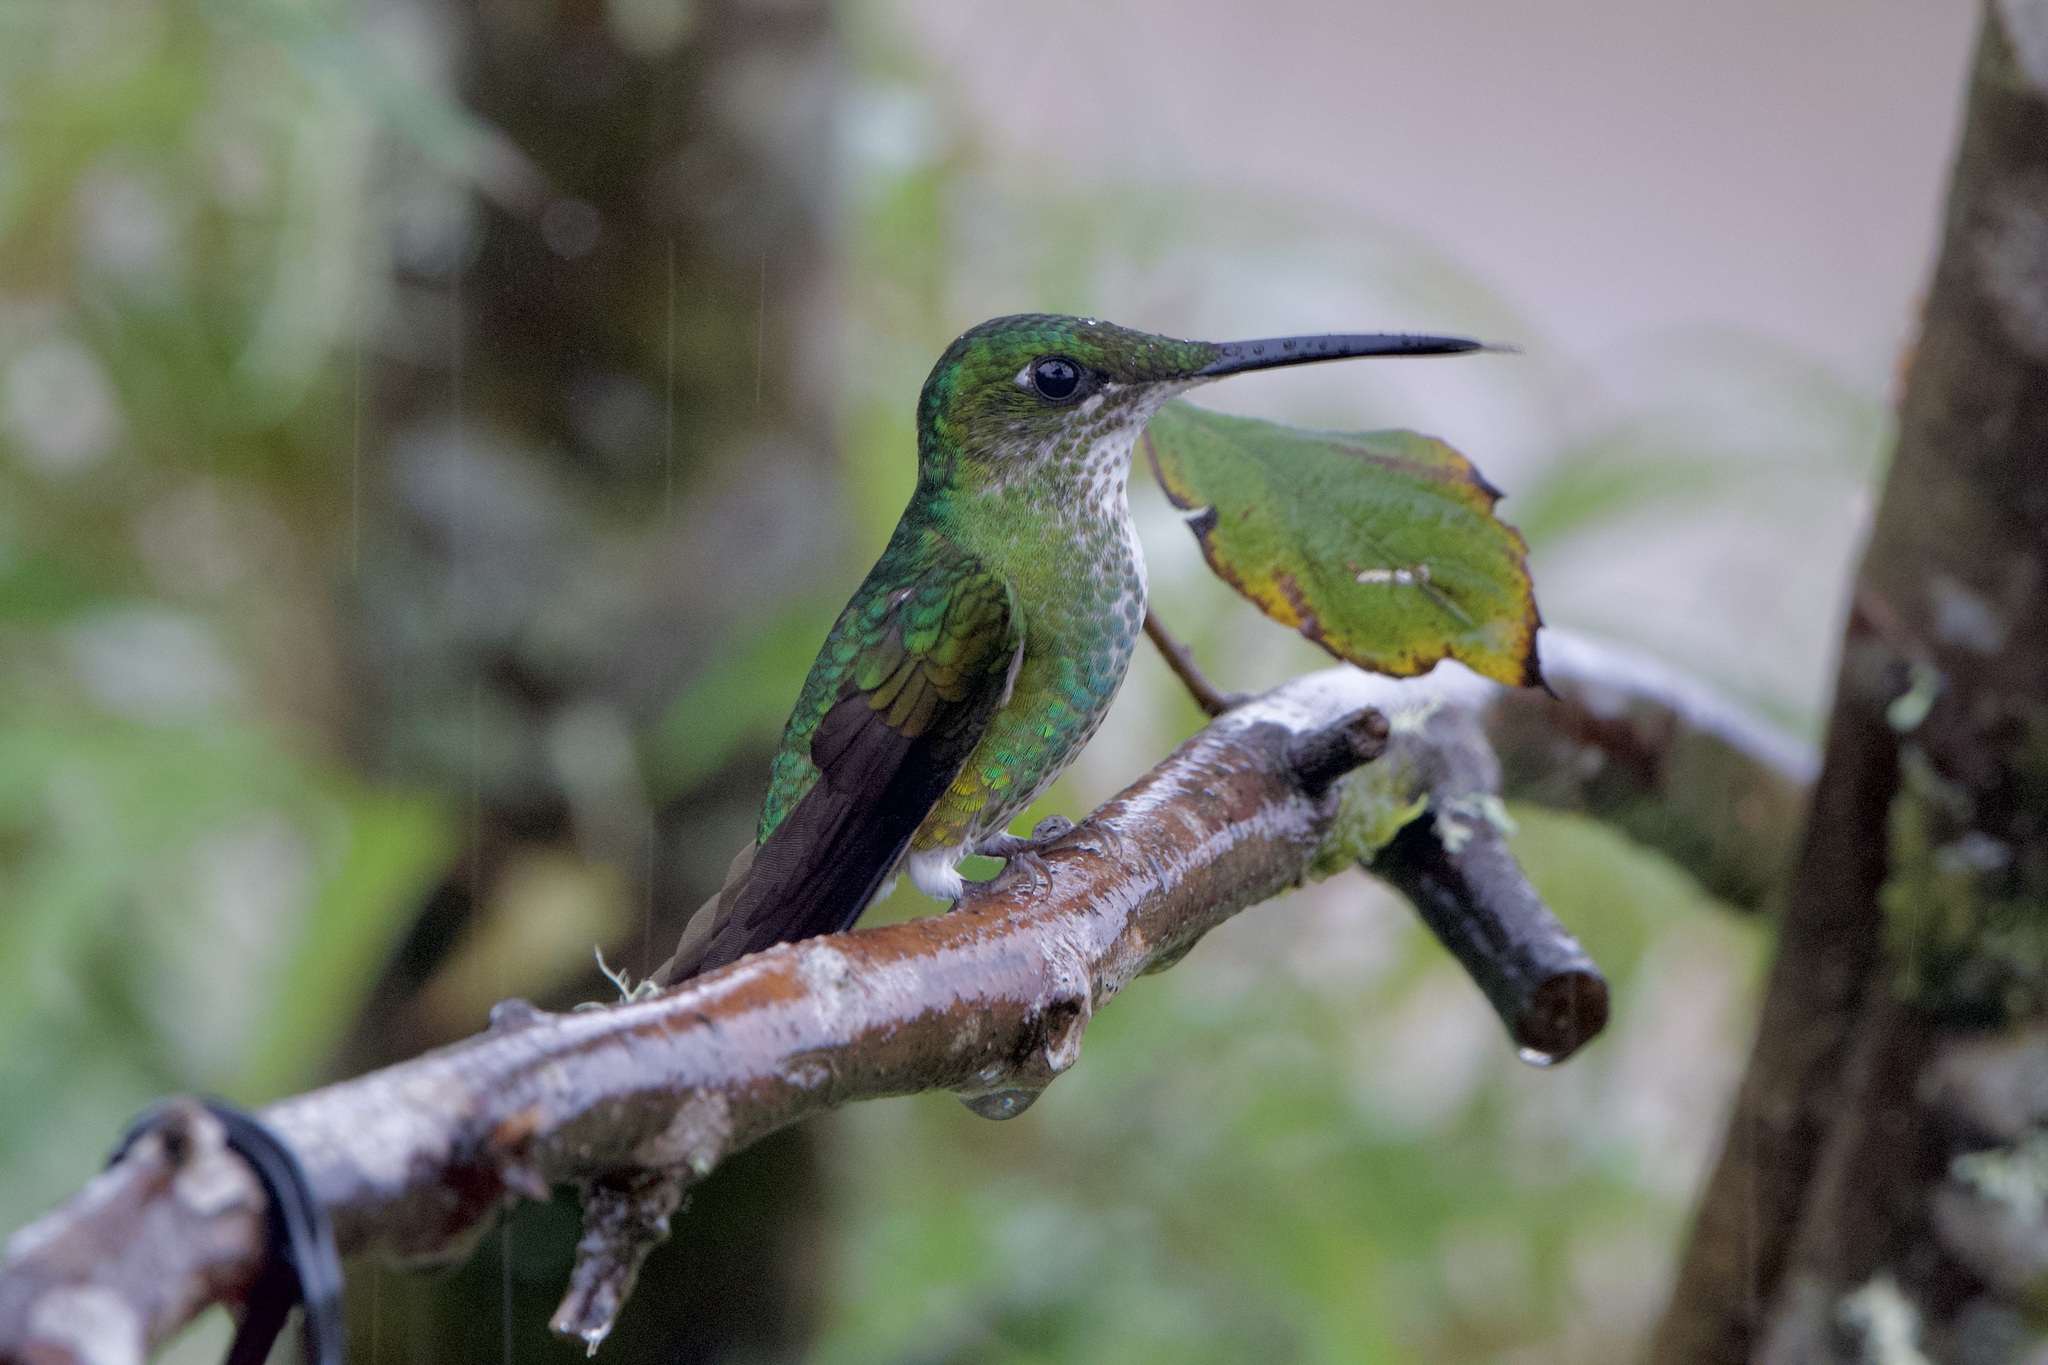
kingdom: Animalia
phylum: Chordata
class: Aves
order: Apodiformes
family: Trochilidae
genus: Heliodoxa
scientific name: Heliodoxa imperatrix
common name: Empress brilliant
